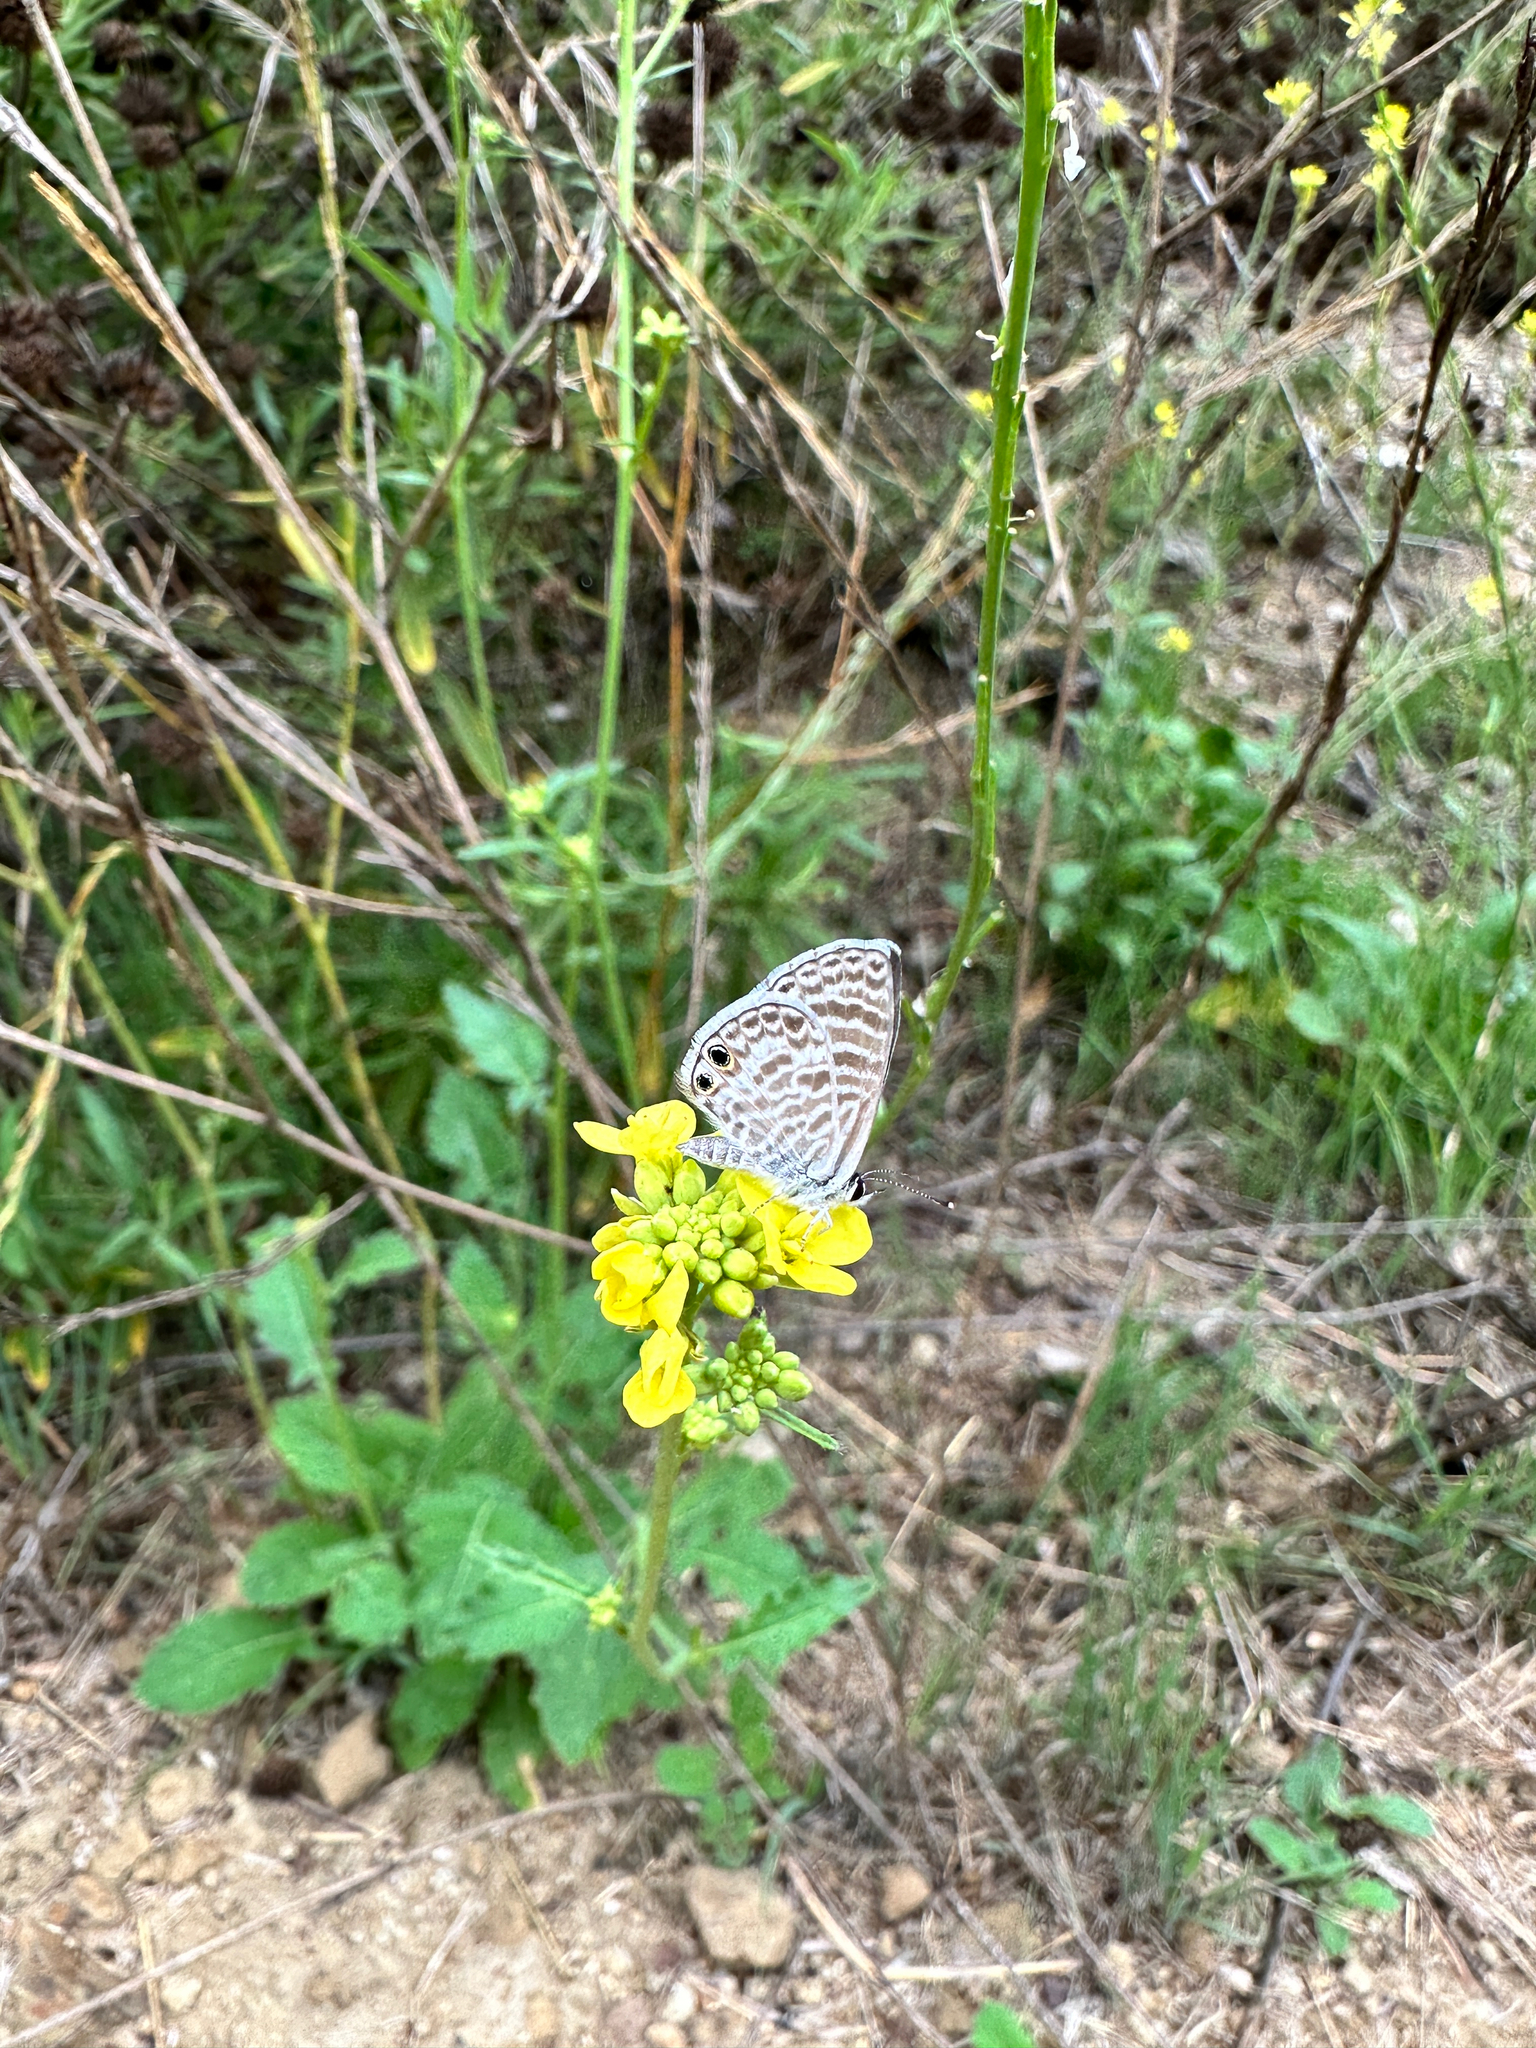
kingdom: Animalia
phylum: Arthropoda
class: Insecta
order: Lepidoptera
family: Lycaenidae
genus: Leptotes
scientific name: Leptotes marina
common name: Marine blue
